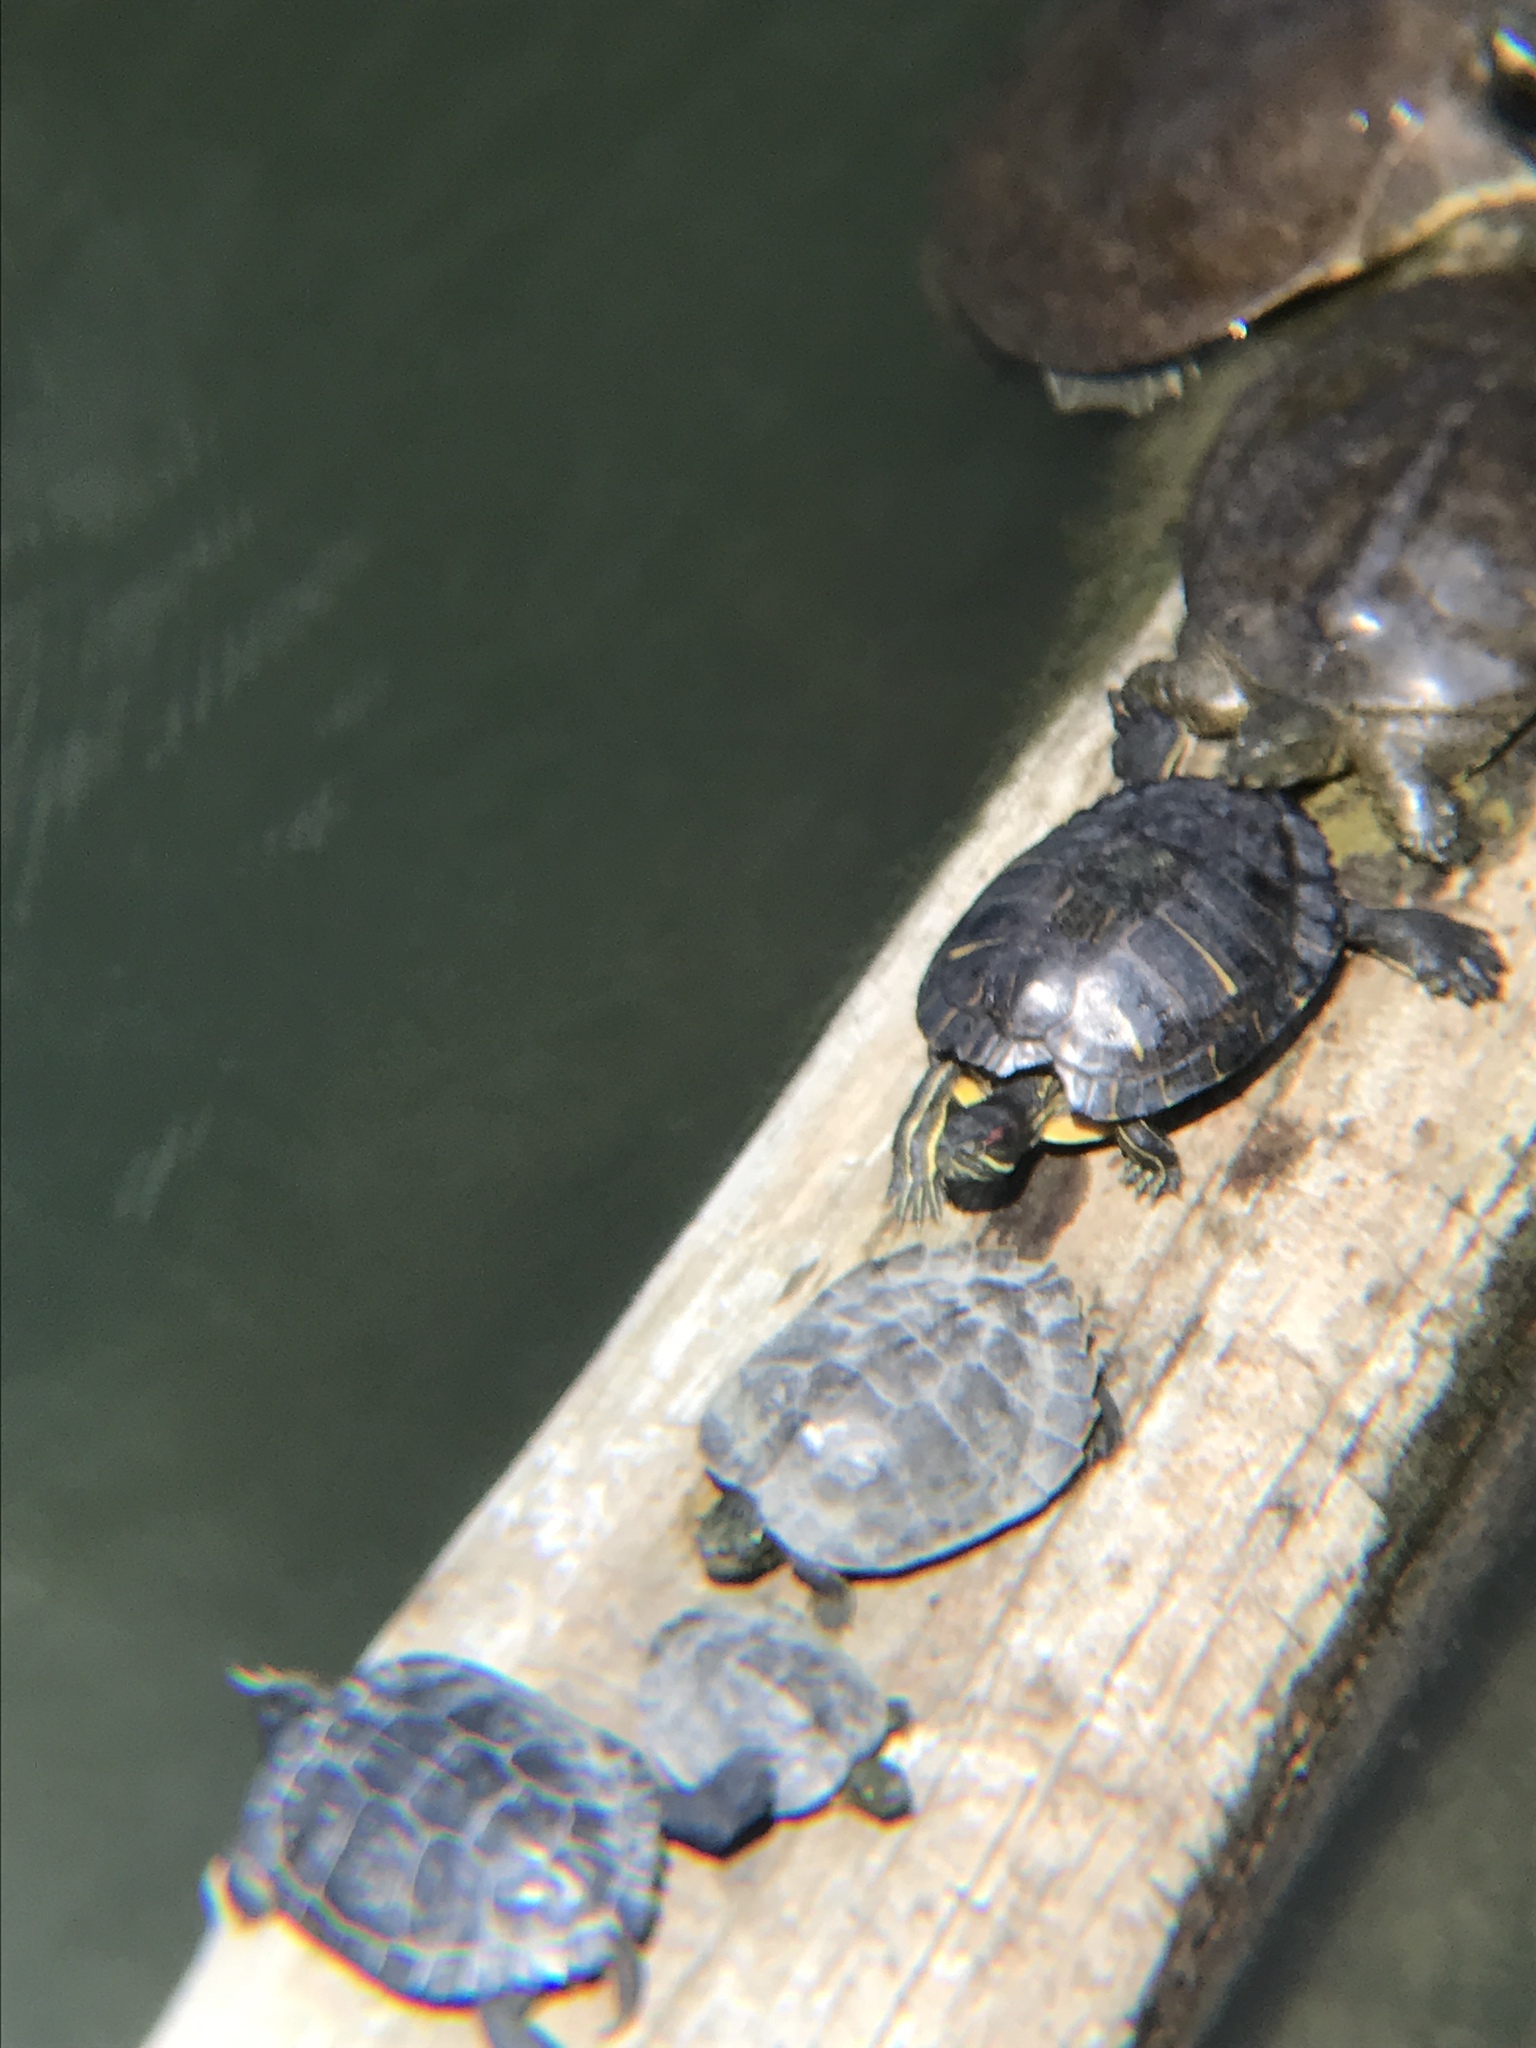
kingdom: Animalia
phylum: Chordata
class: Testudines
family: Emydidae
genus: Trachemys
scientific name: Trachemys scripta
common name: Slider
